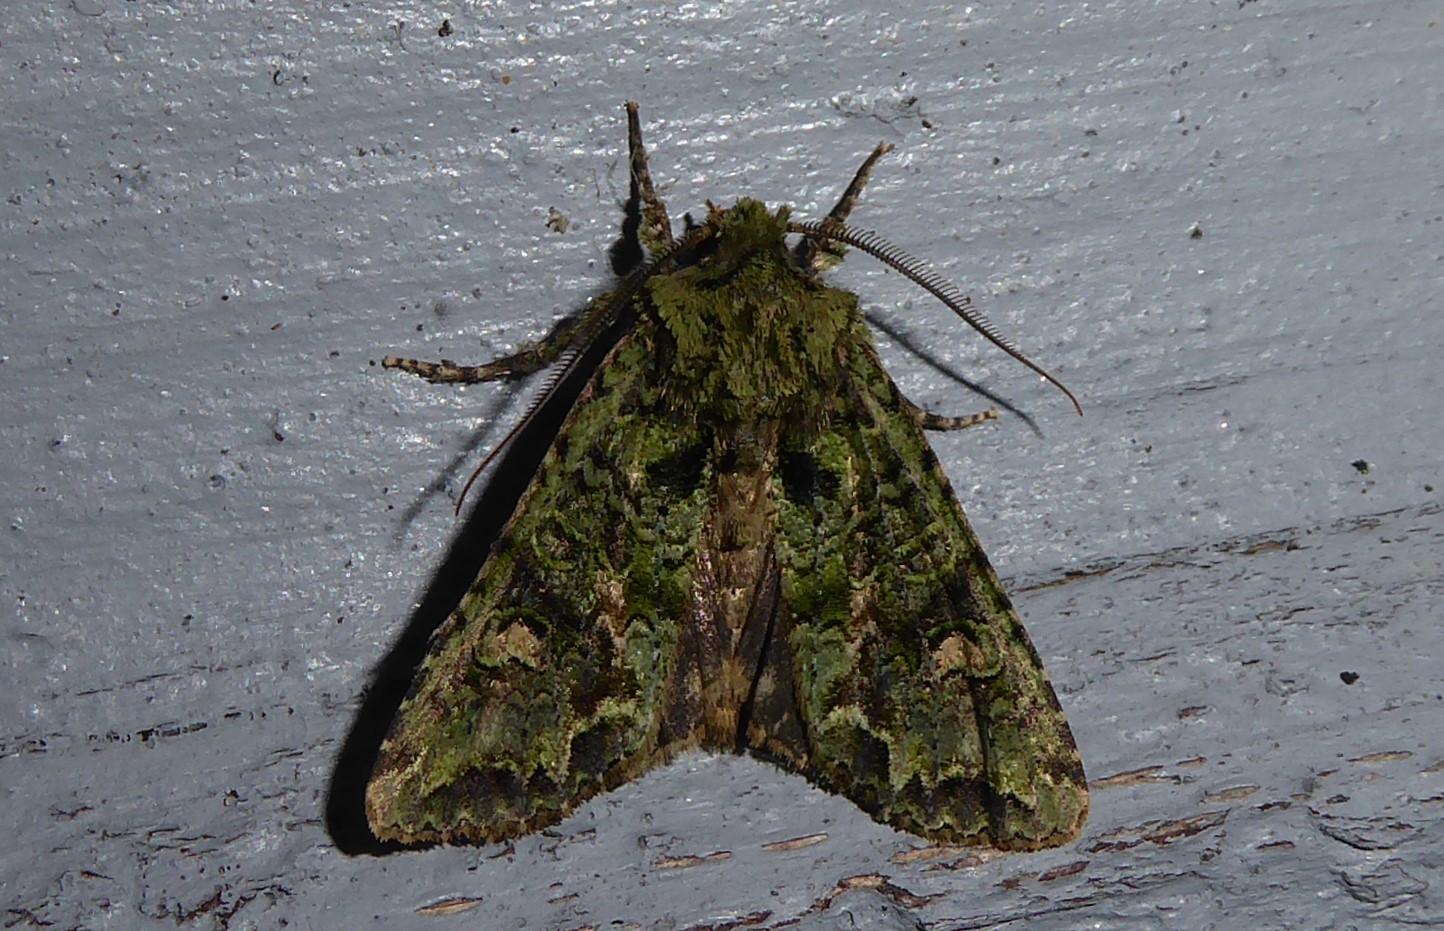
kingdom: Animalia
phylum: Arthropoda
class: Insecta
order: Lepidoptera
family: Noctuidae
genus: Ichneutica
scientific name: Ichneutica
